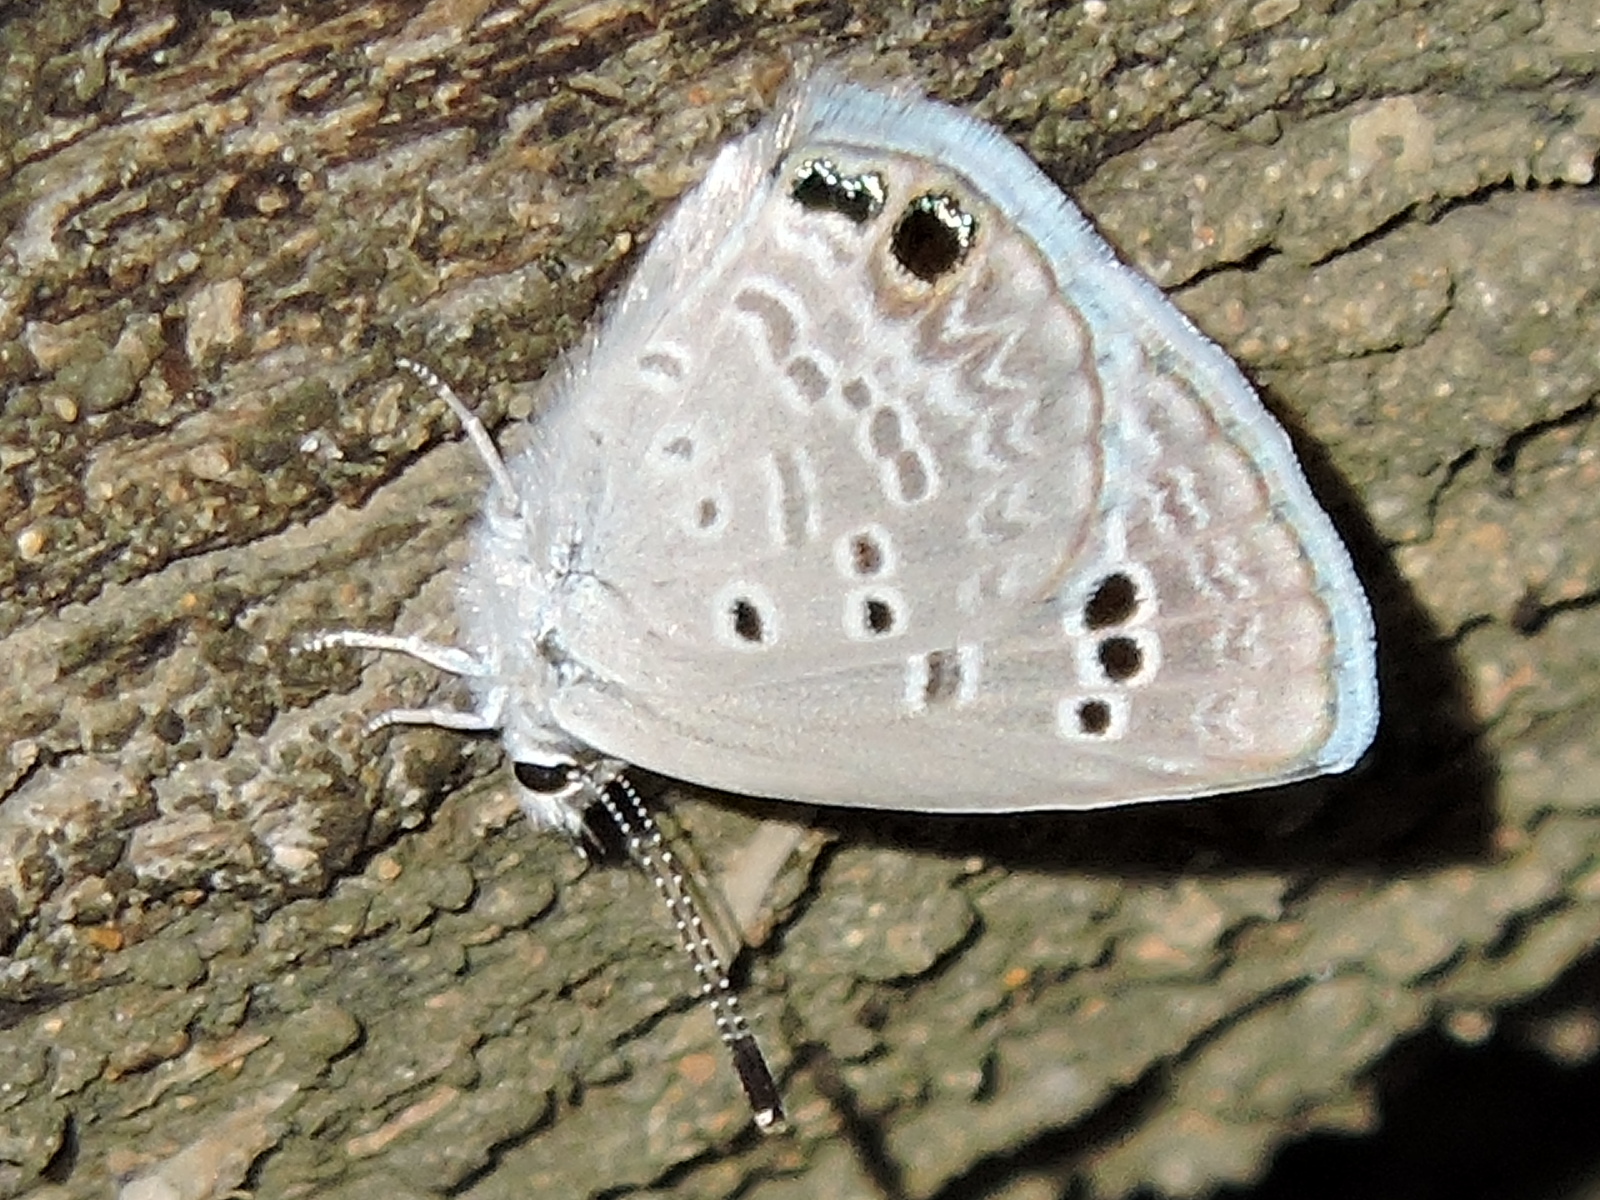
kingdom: Animalia
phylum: Arthropoda
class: Insecta
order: Lepidoptera
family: Lycaenidae
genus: Echinargus
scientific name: Echinargus isola
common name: Reakirt's blue
